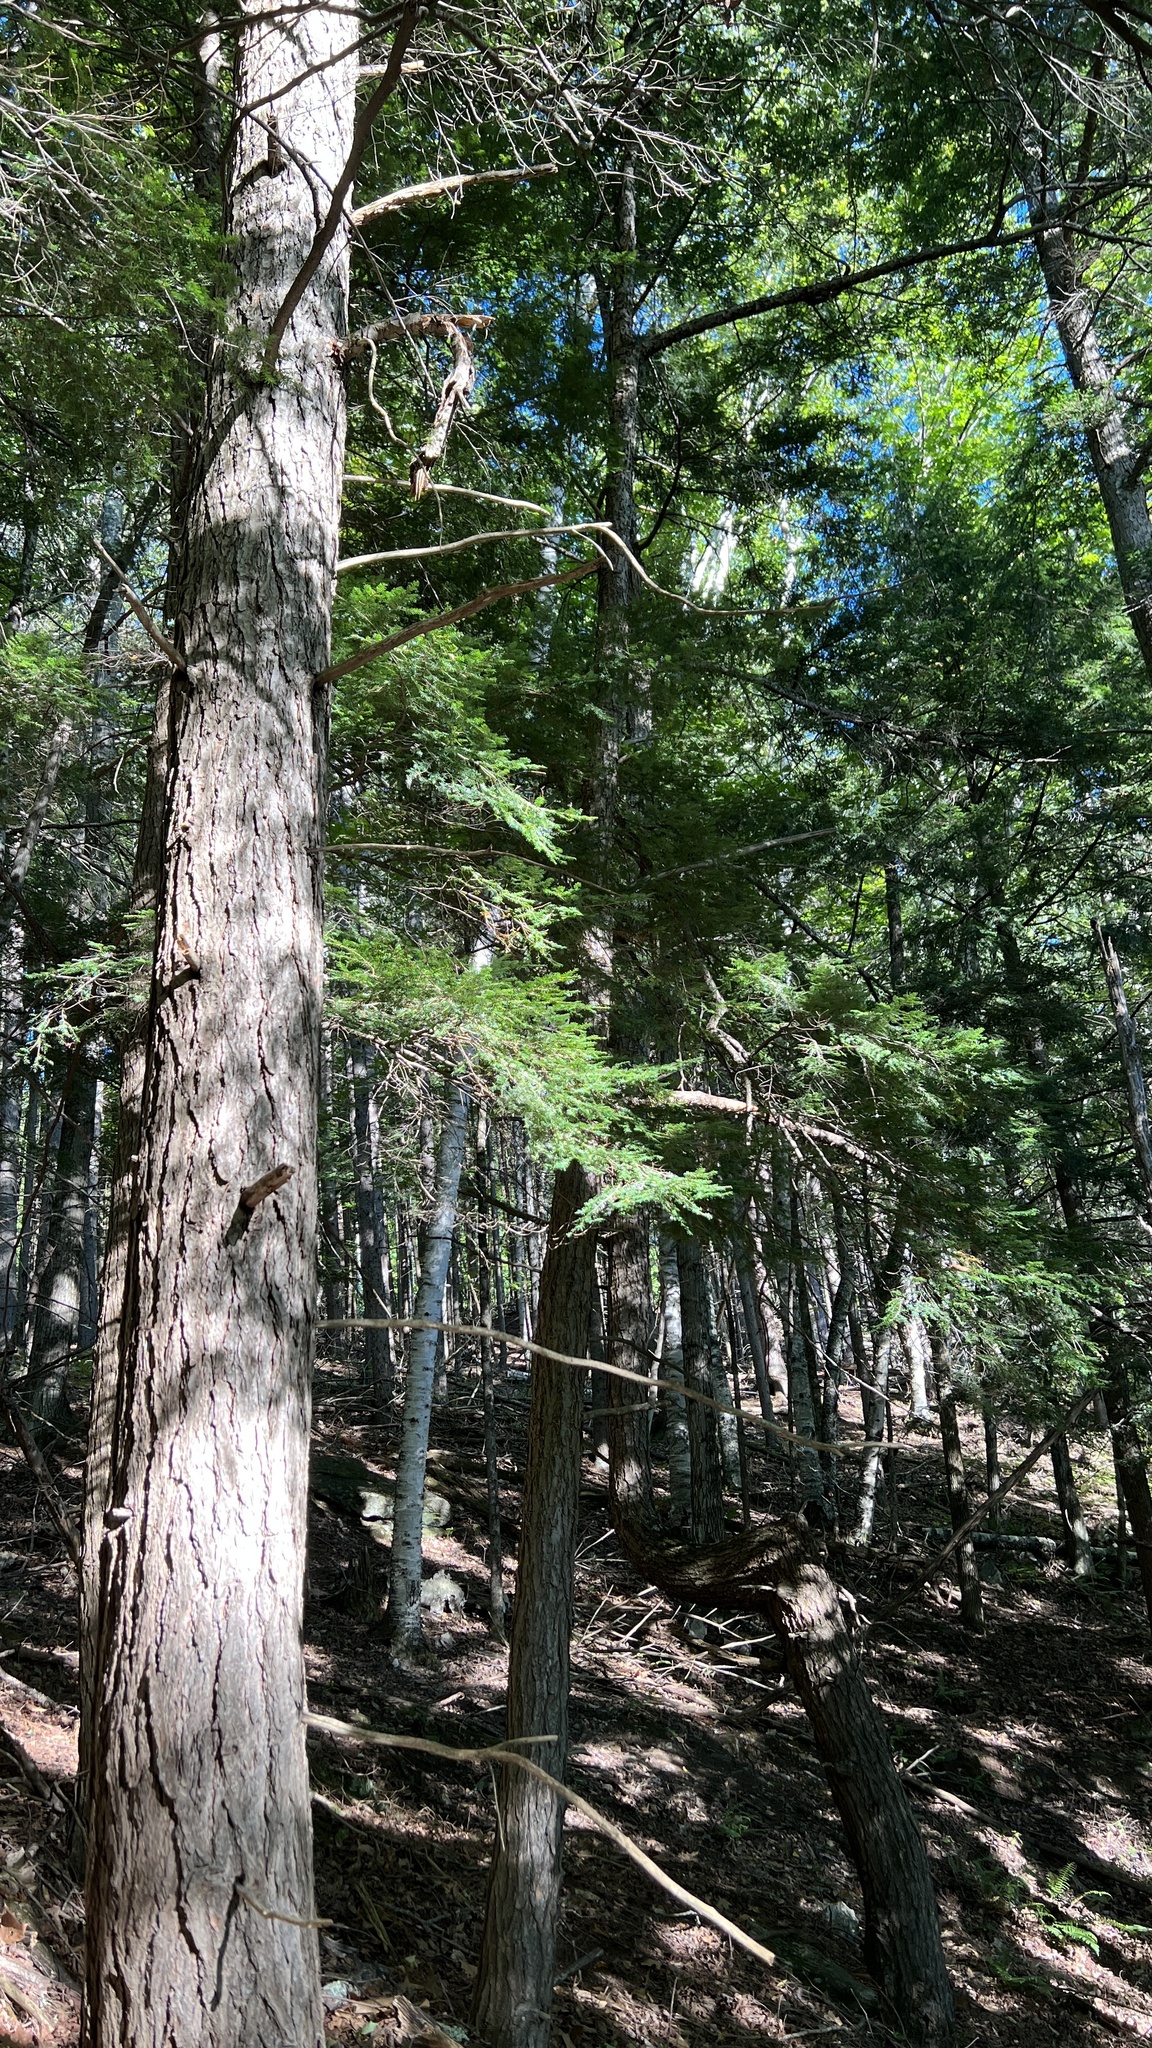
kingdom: Plantae
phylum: Tracheophyta
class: Pinopsida
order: Pinales
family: Pinaceae
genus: Tsuga
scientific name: Tsuga canadensis
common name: Eastern hemlock
